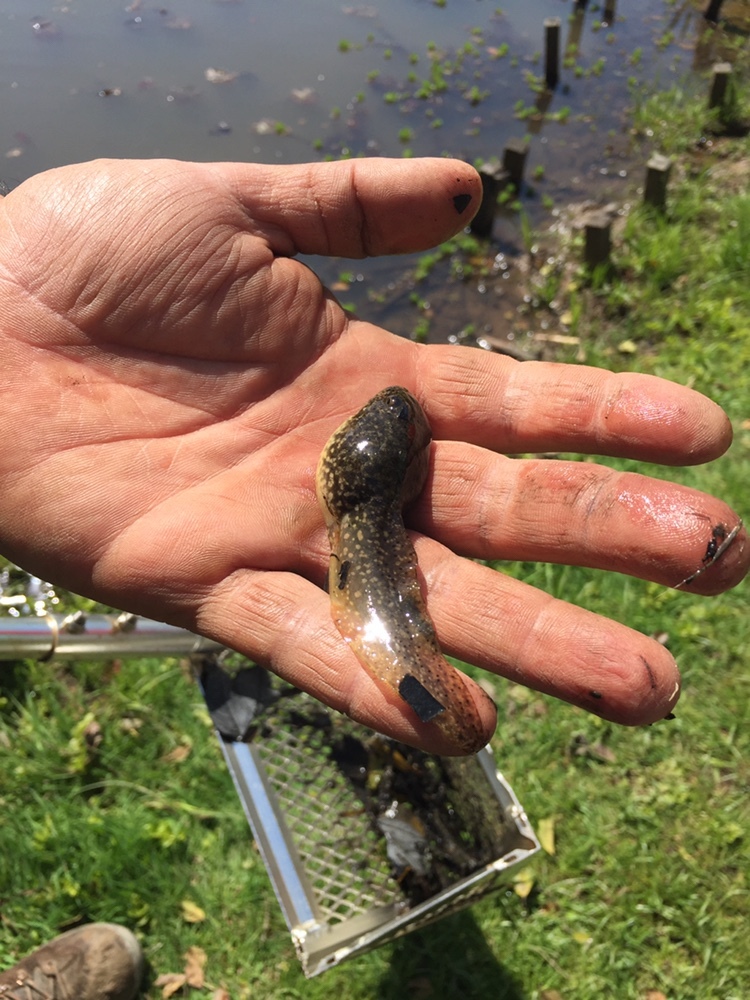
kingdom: Animalia
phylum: Chordata
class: Amphibia
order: Anura
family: Ranidae
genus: Lithobates
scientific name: Lithobates catesbeianus
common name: American bullfrog
